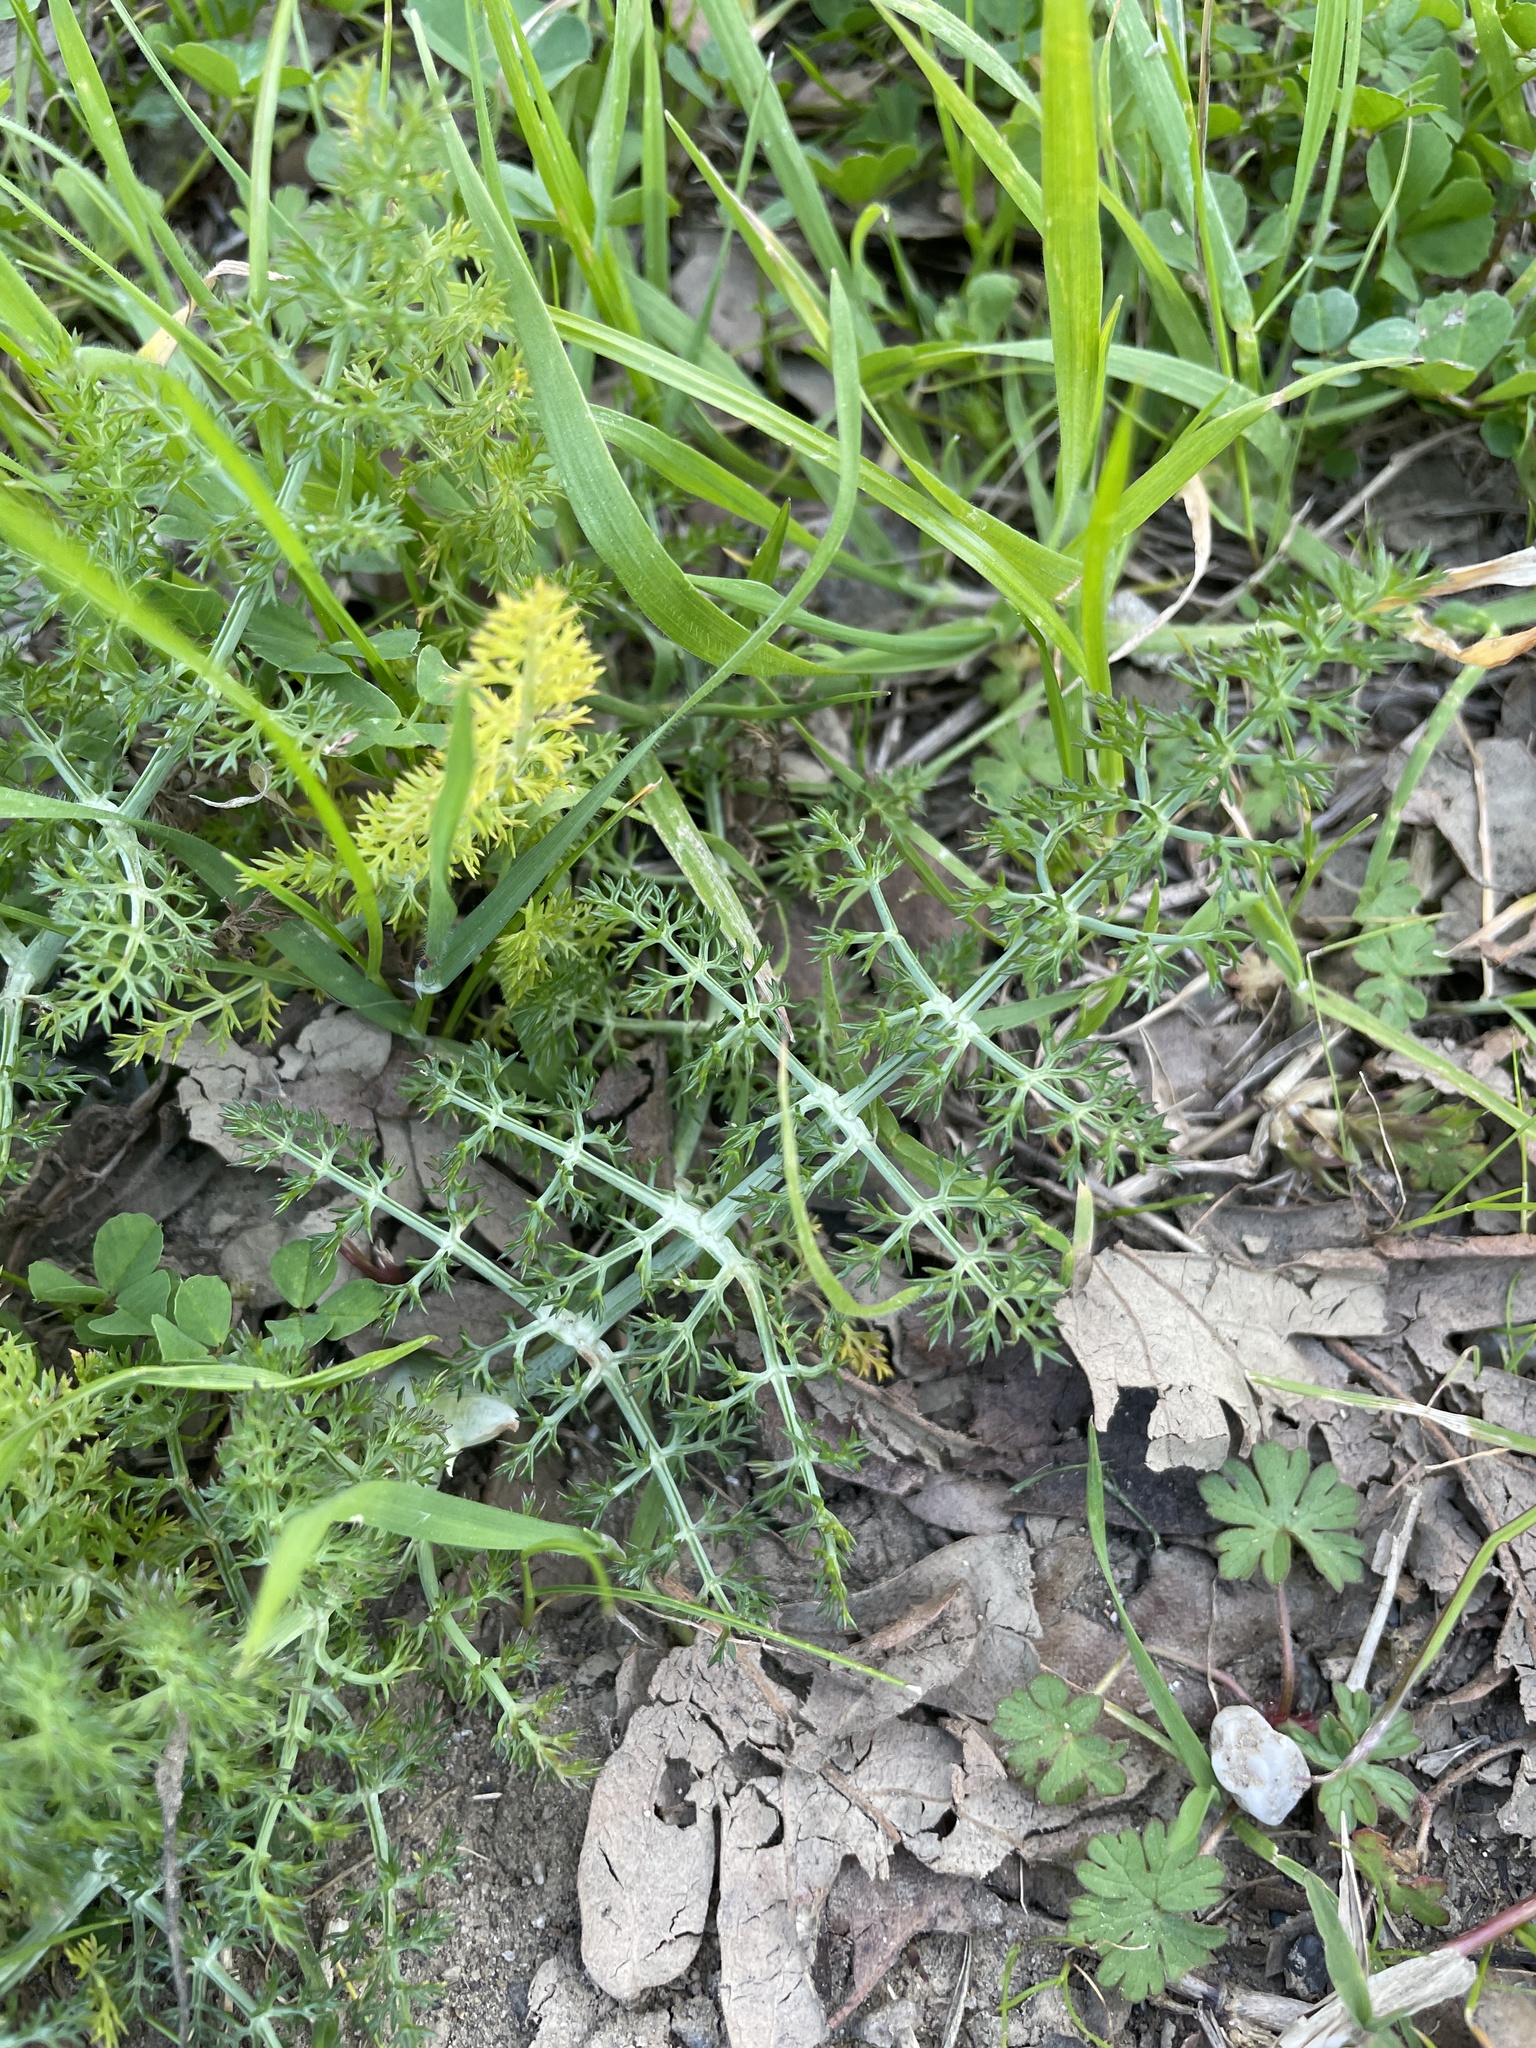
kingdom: Plantae
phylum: Tracheophyta
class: Magnoliopsida
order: Apiales
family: Apiaceae
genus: Foeniculum
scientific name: Foeniculum vulgare
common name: Fennel
